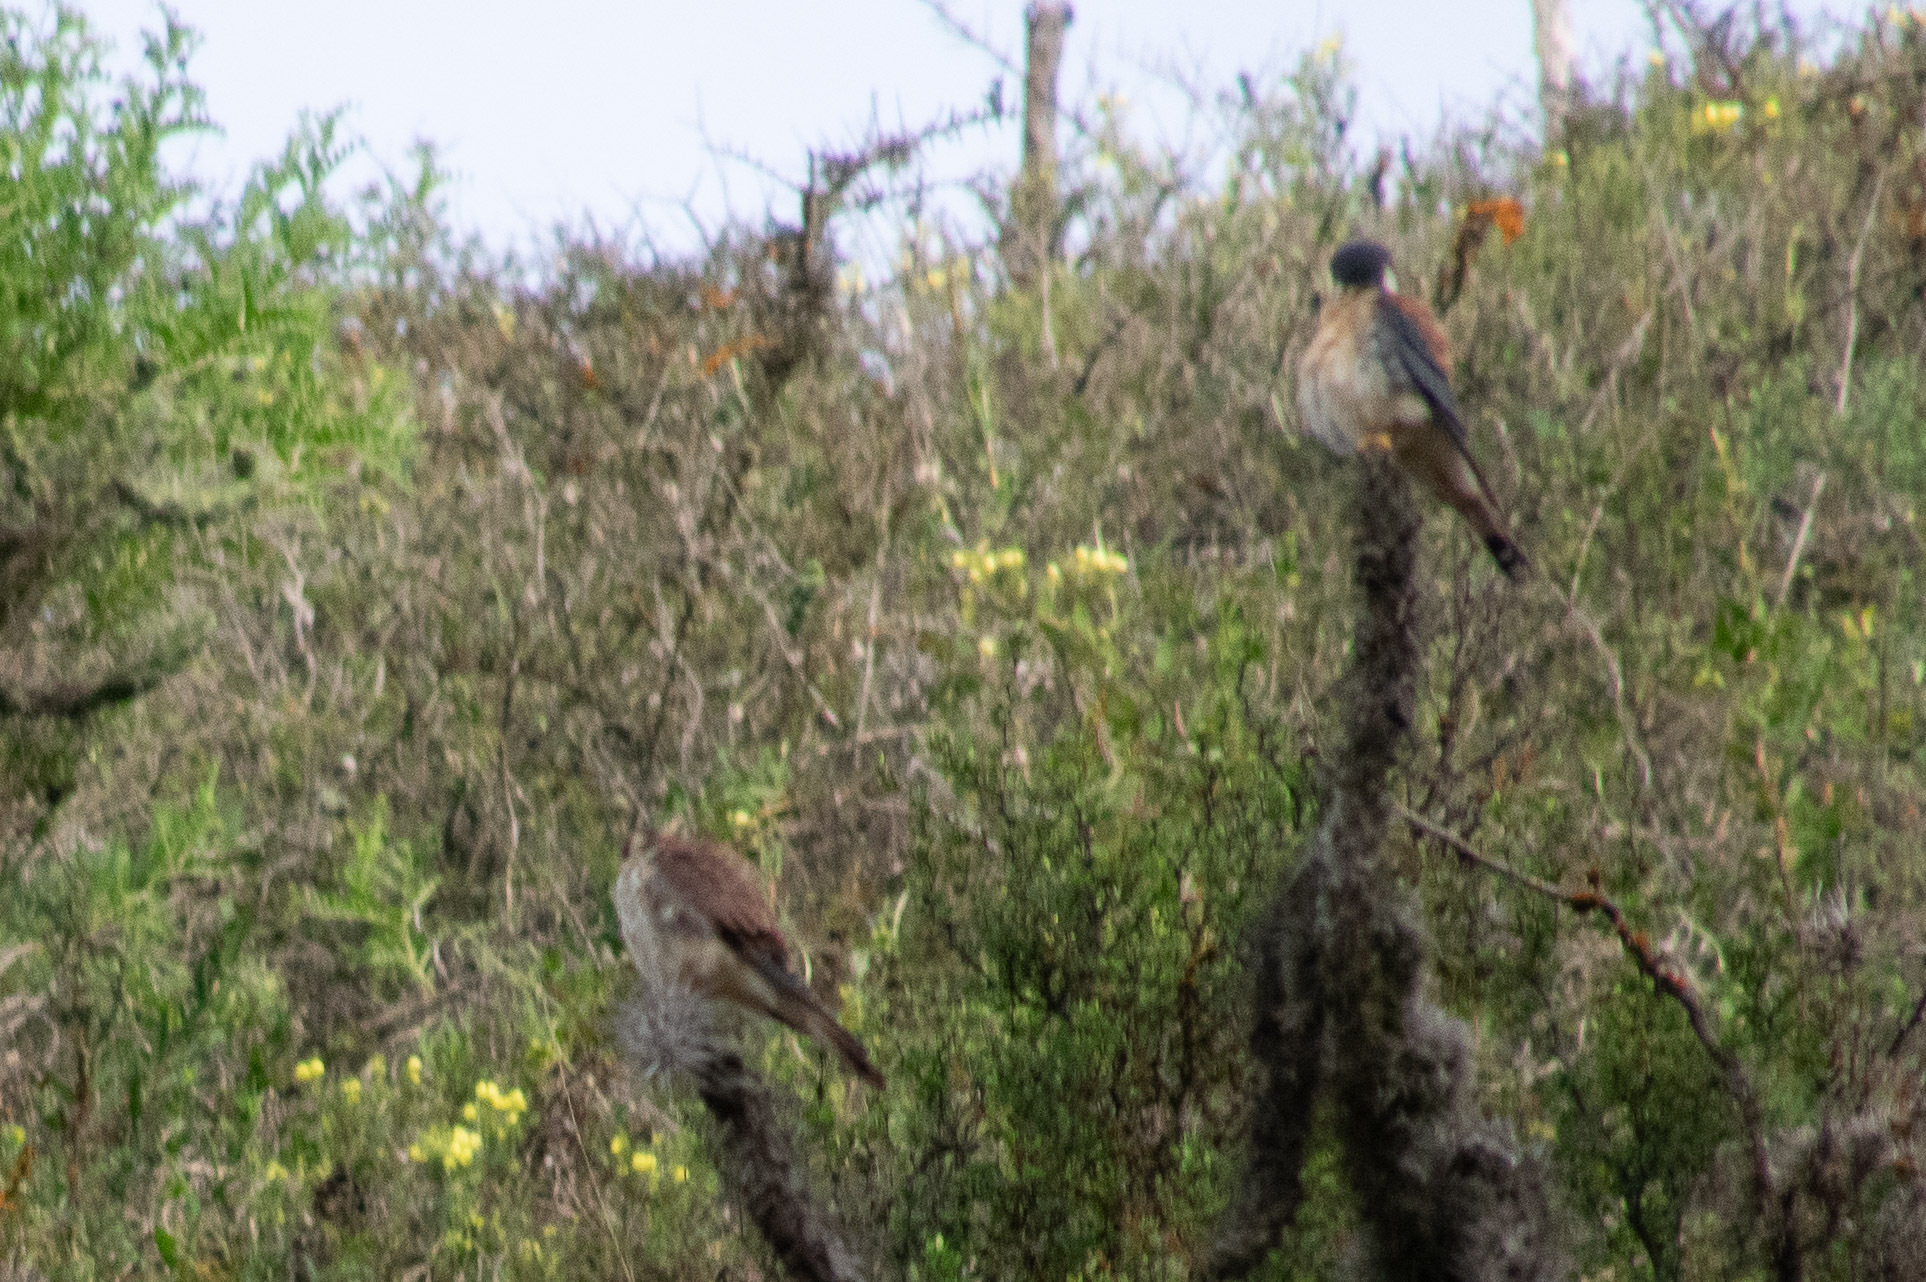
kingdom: Animalia
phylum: Chordata
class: Aves
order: Falconiformes
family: Falconidae
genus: Falco
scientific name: Falco sparverius
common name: American kestrel
